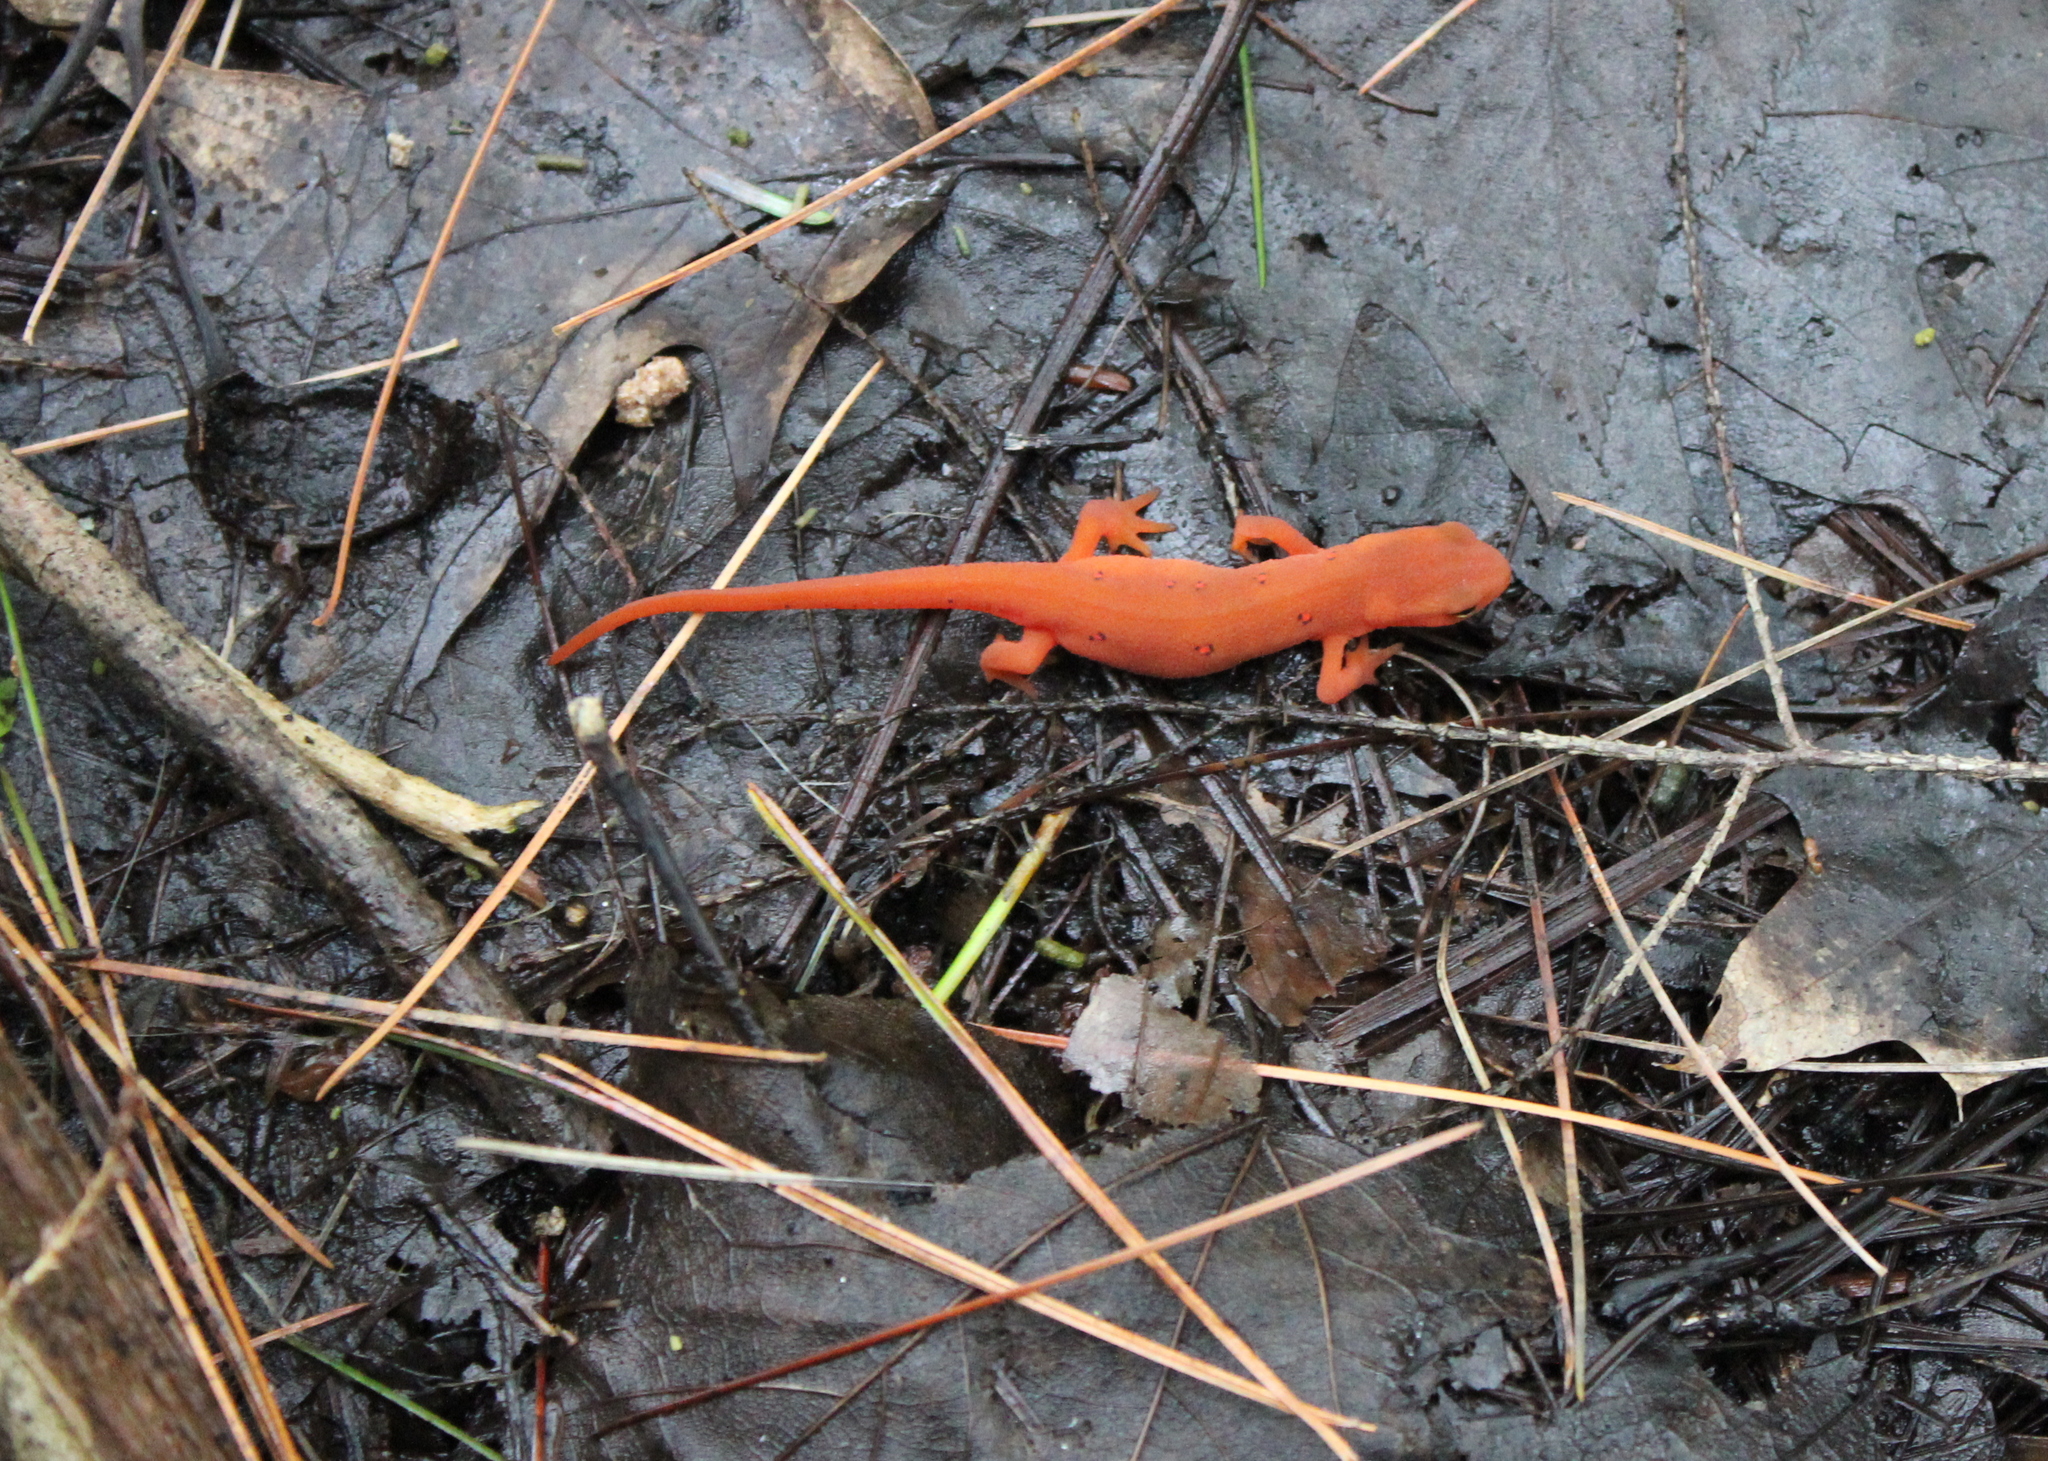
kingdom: Animalia
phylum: Chordata
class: Amphibia
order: Caudata
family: Salamandridae
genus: Notophthalmus
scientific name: Notophthalmus viridescens
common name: Eastern newt
